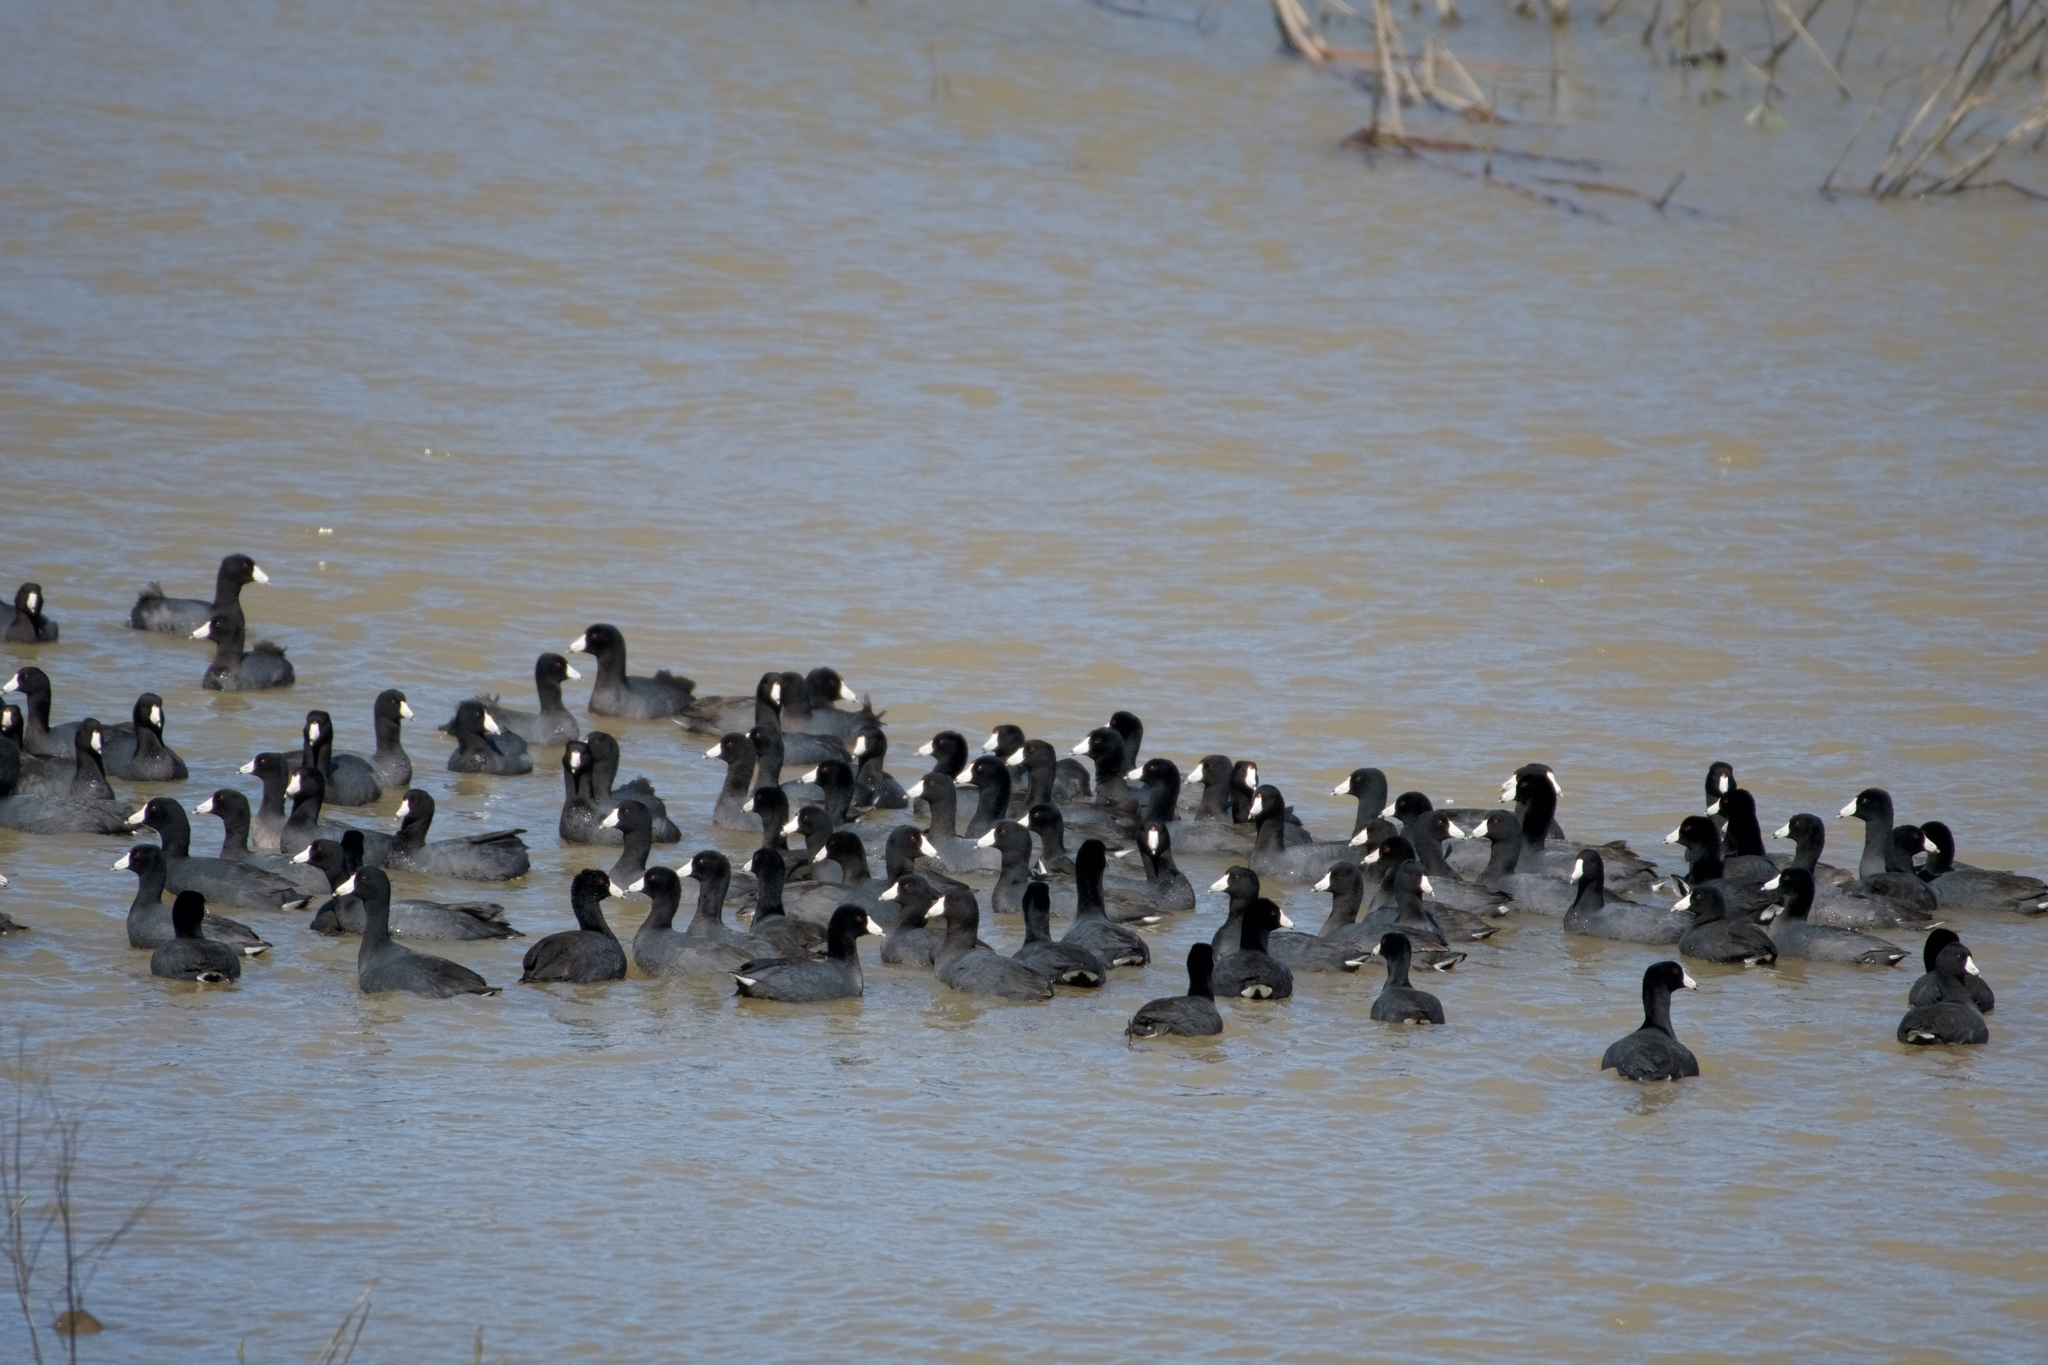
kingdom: Animalia
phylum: Chordata
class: Aves
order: Gruiformes
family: Rallidae
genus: Fulica
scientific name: Fulica americana
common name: American coot
